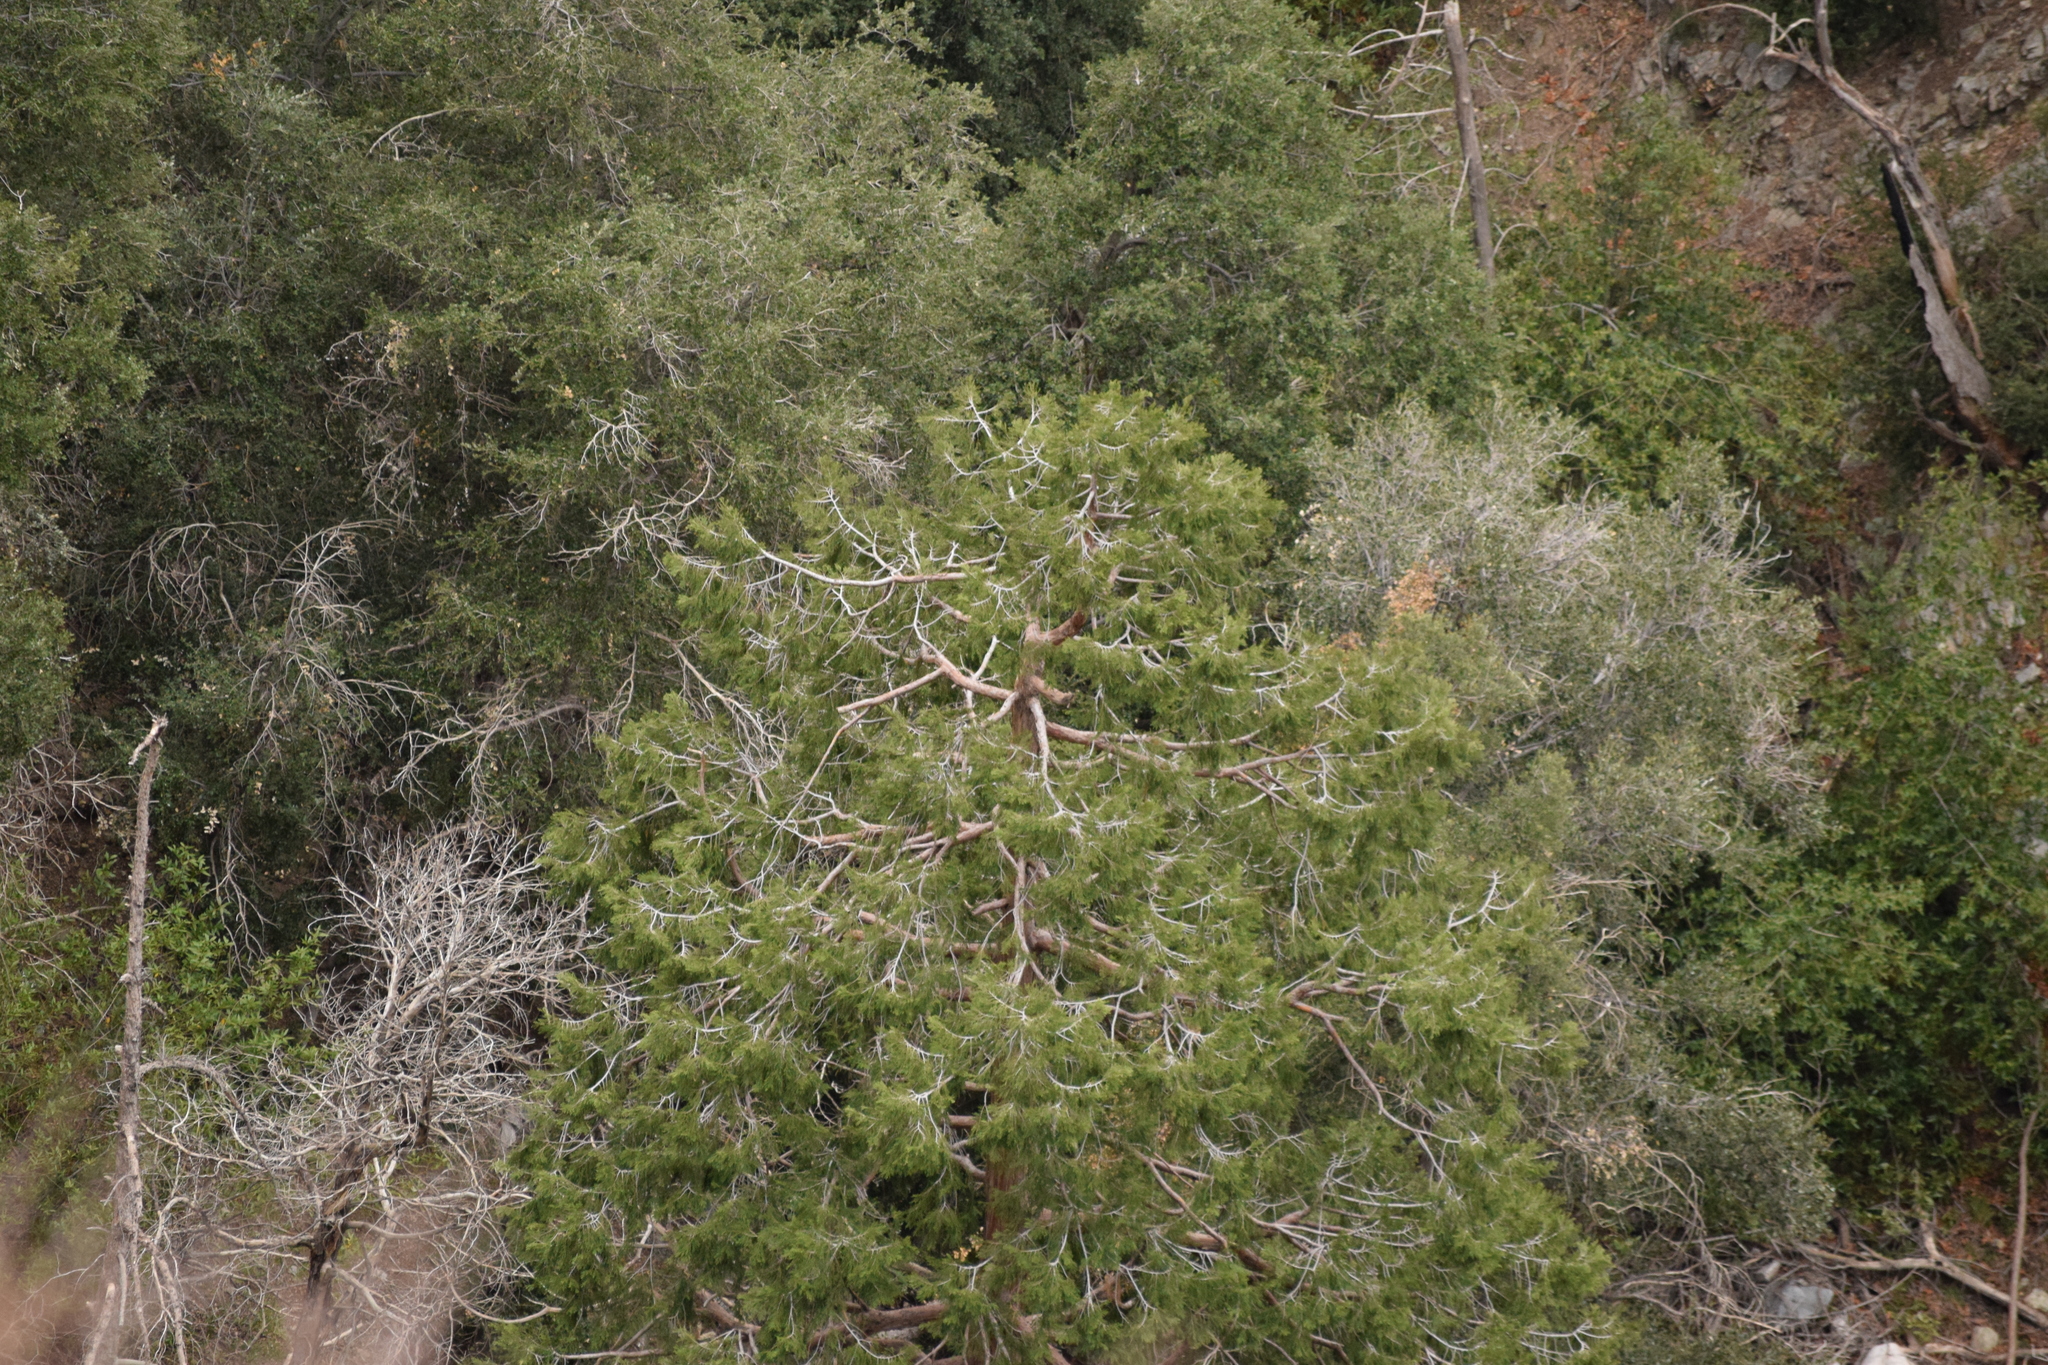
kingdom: Plantae
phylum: Tracheophyta
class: Pinopsida
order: Pinales
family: Cupressaceae
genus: Calocedrus
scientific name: Calocedrus decurrens
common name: Californian incense-cedar
